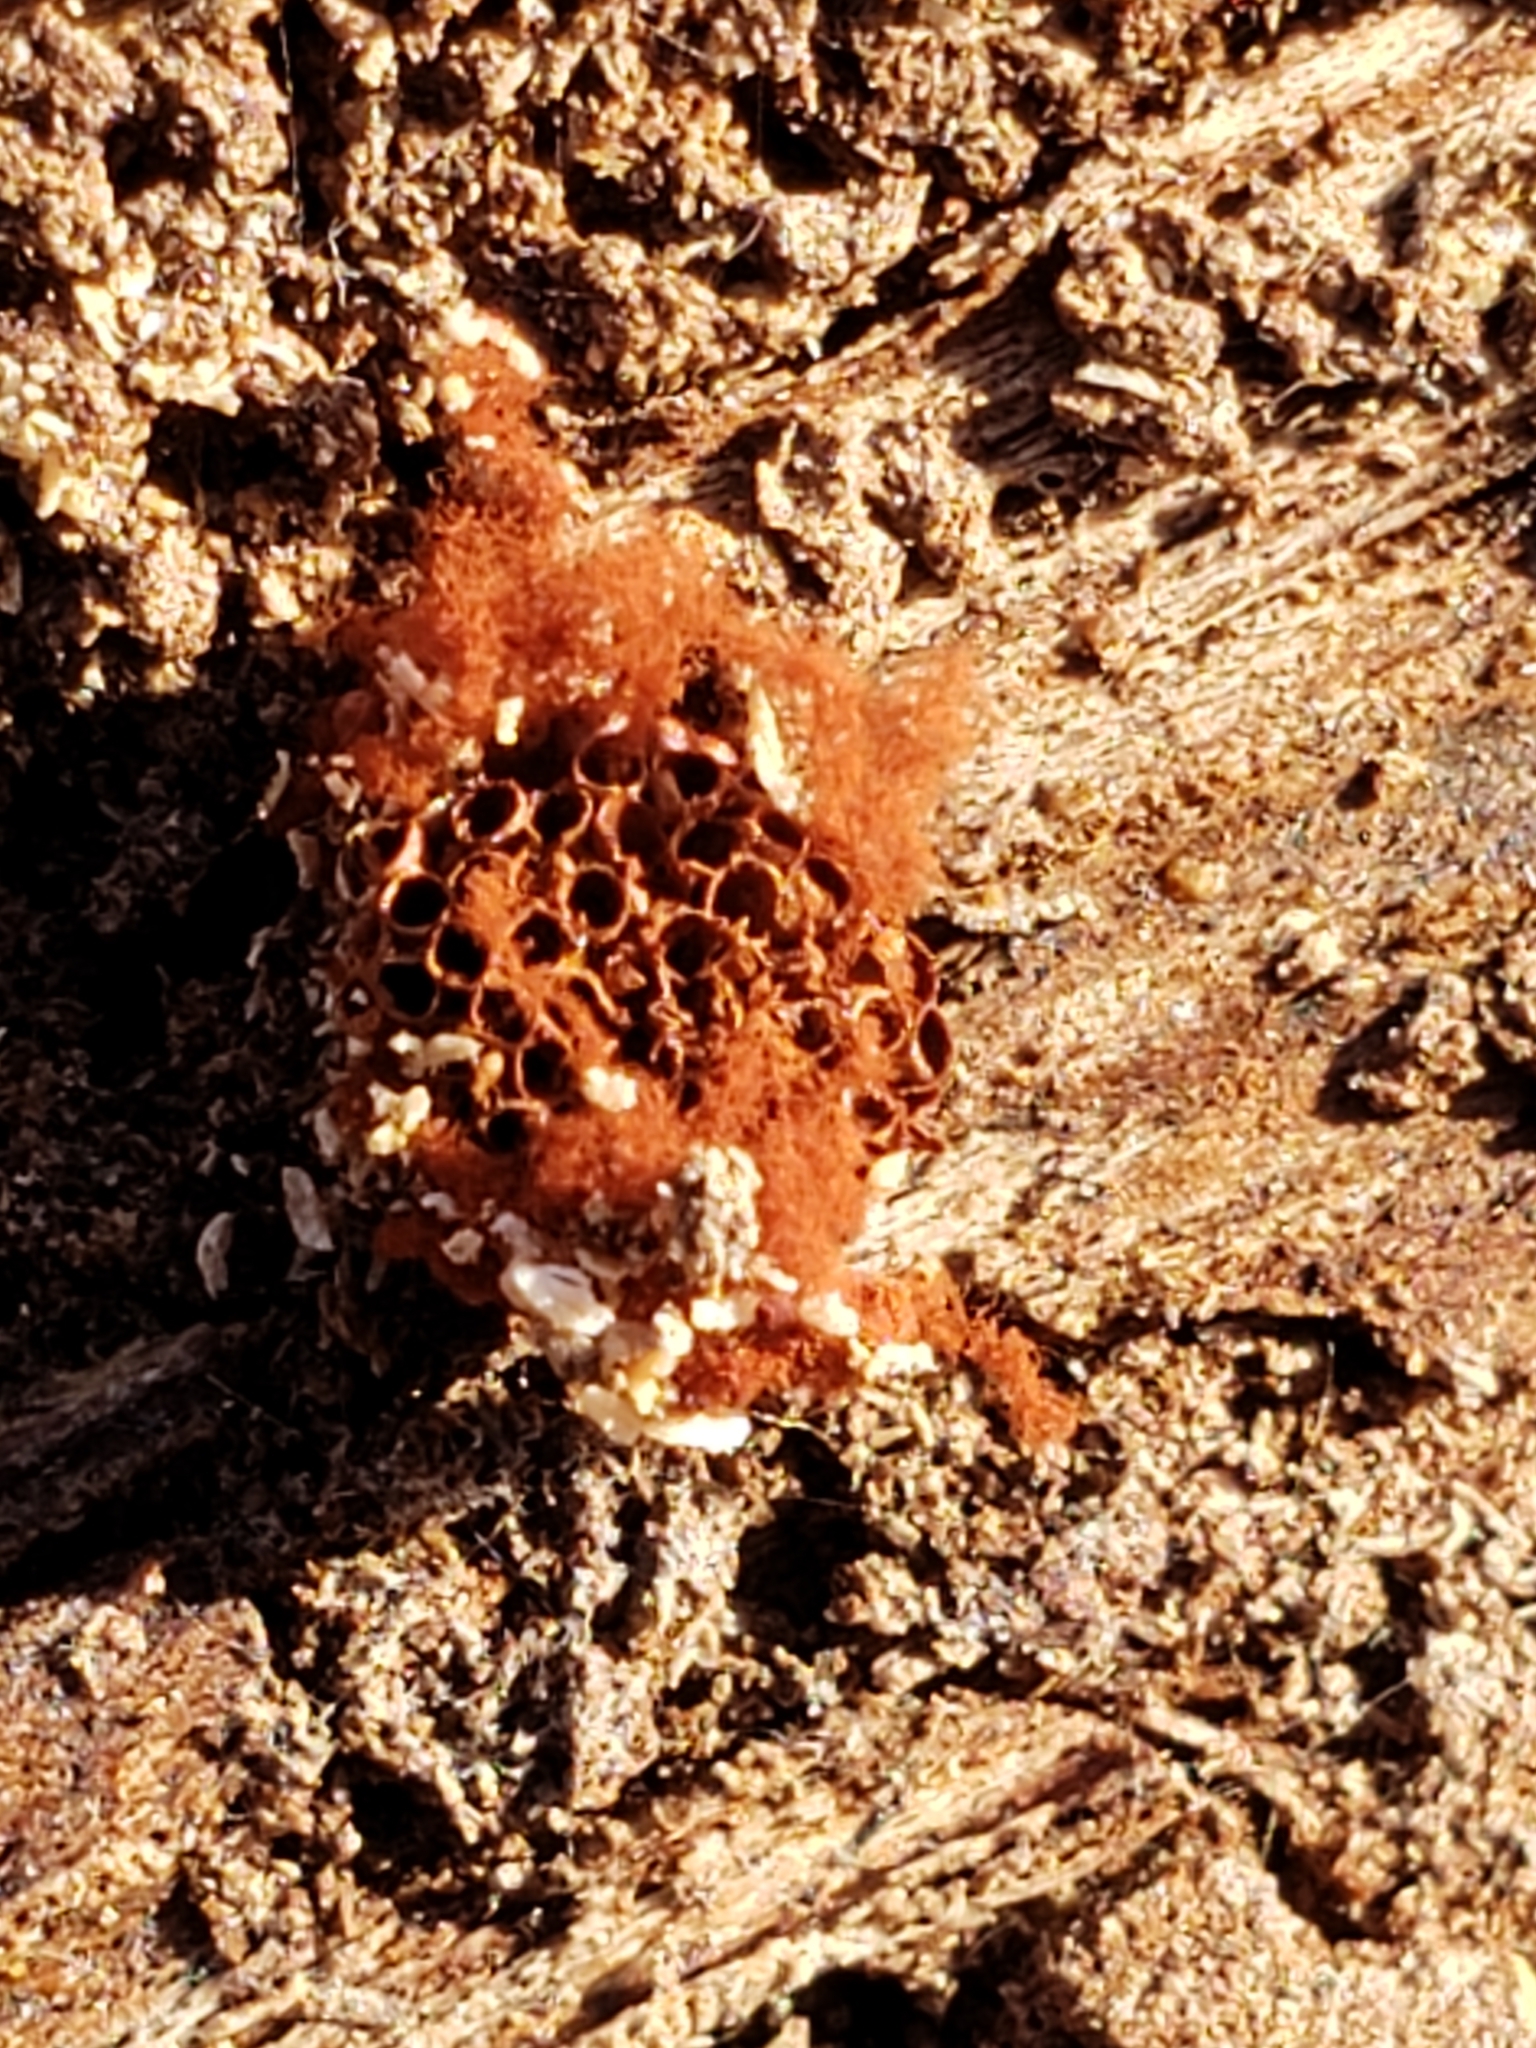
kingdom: Protozoa
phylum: Mycetozoa
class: Myxomycetes
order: Trichiales
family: Trichiaceae
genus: Metatrichia
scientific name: Metatrichia vesparia
